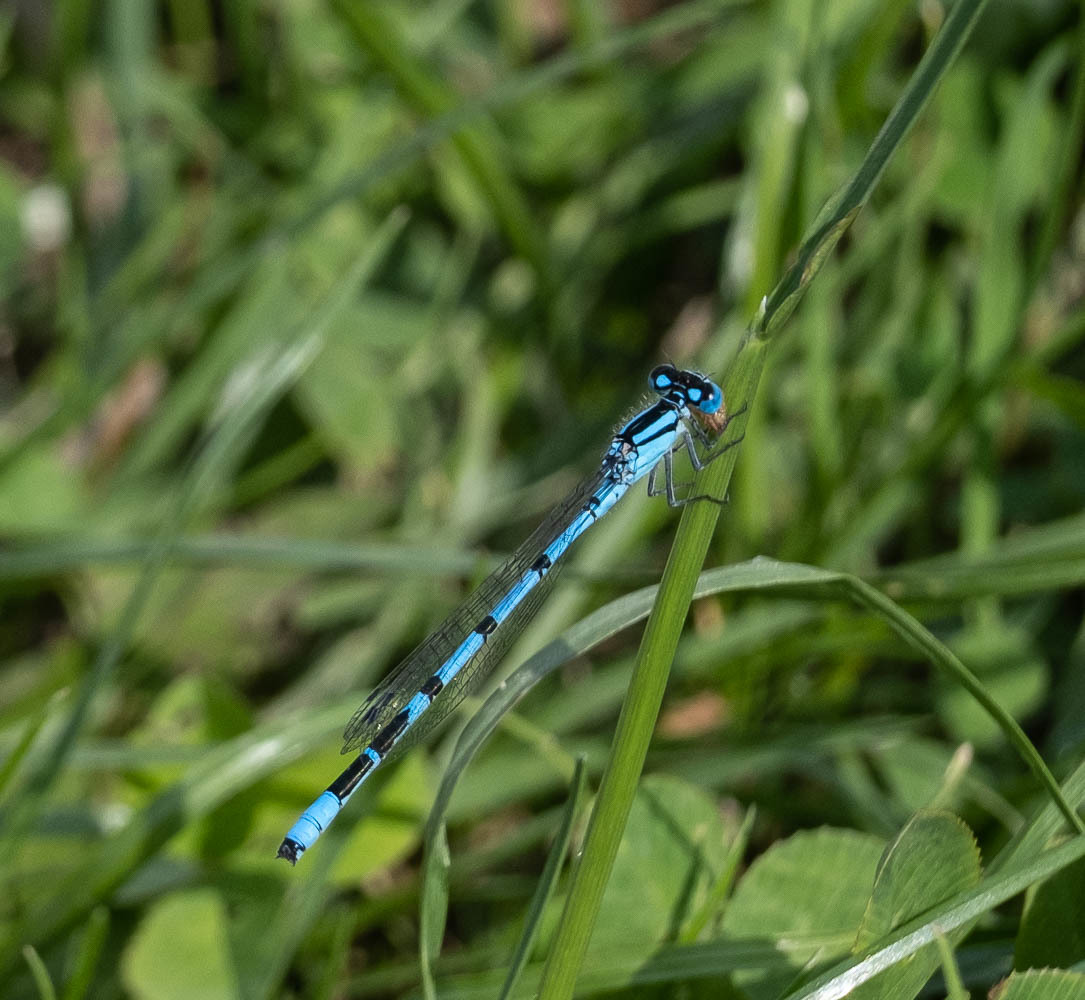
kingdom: Animalia
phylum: Arthropoda
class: Insecta
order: Odonata
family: Coenagrionidae
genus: Enallagma
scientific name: Enallagma cyathigerum
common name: Common blue damselfly
